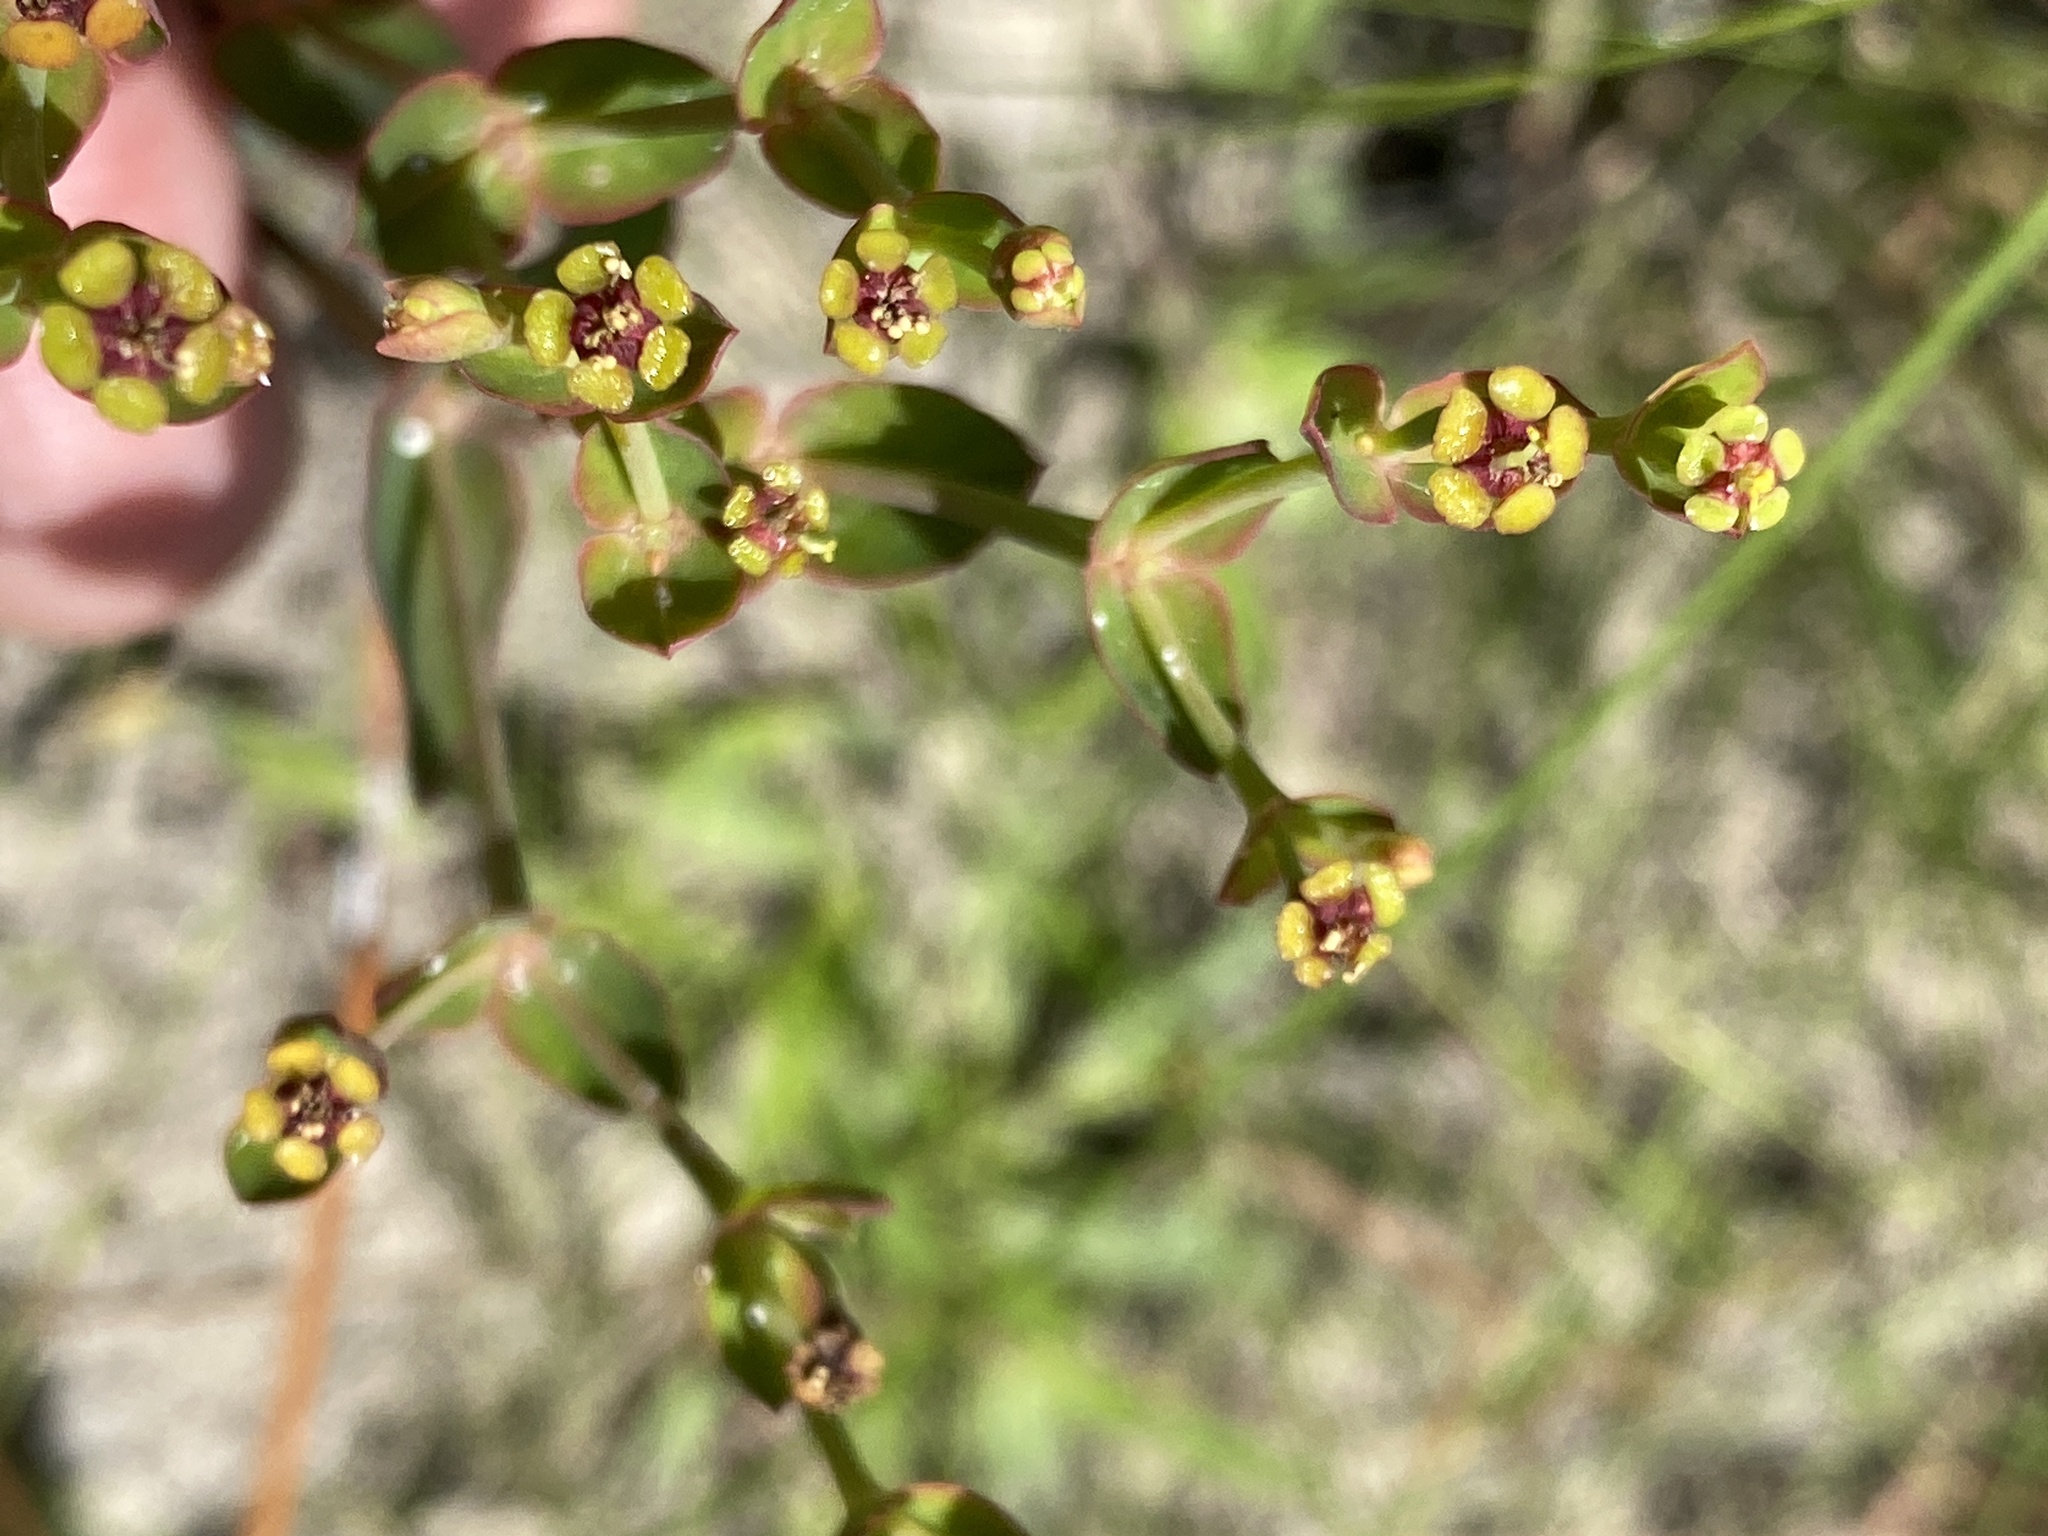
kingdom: Plantae
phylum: Tracheophyta
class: Magnoliopsida
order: Malpighiales
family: Euphorbiaceae
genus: Euphorbia
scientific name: Euphorbia inundata
